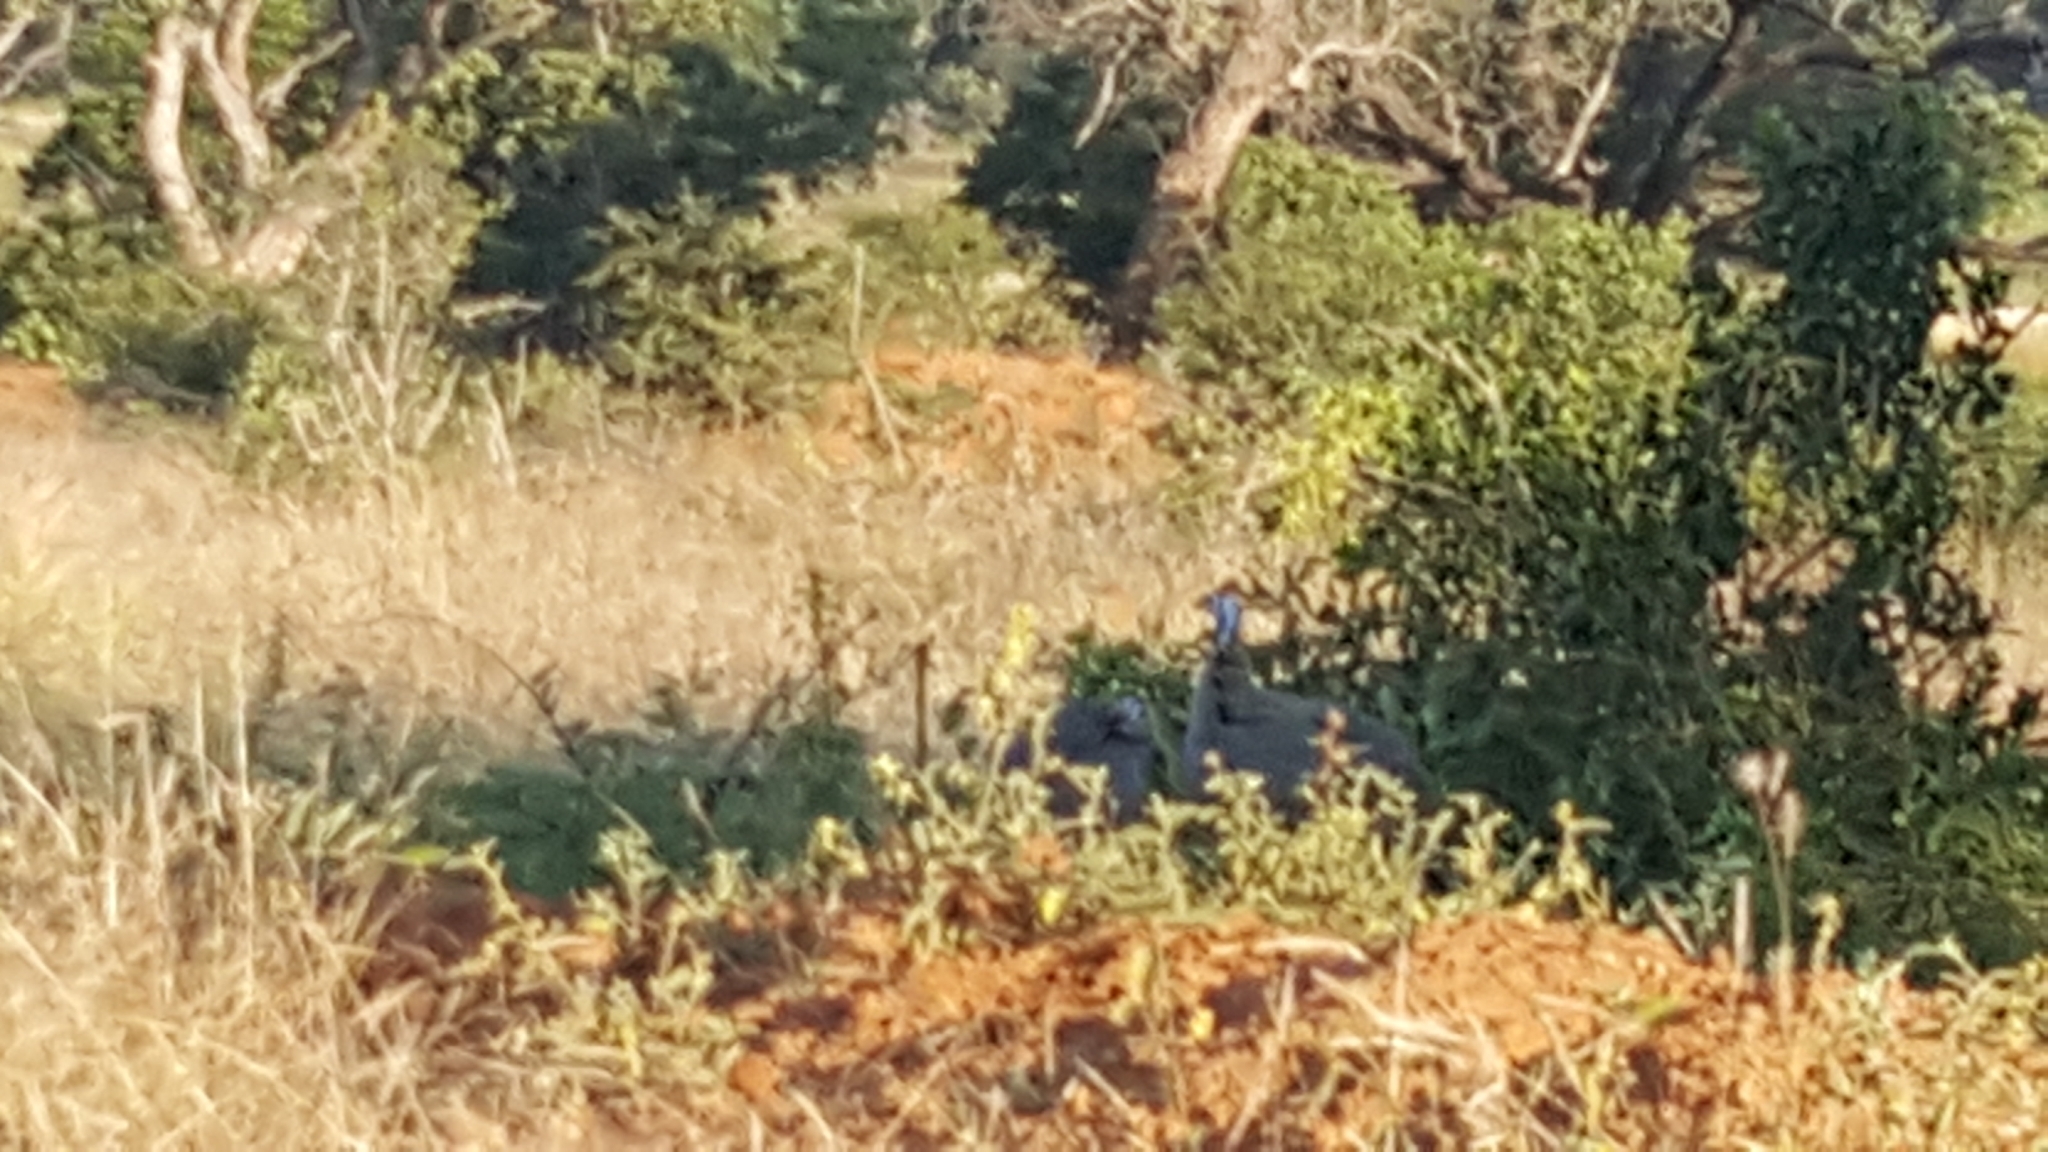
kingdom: Animalia
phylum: Chordata
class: Aves
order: Galliformes
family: Numididae
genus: Numida
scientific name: Numida meleagris
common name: Helmeted guineafowl
